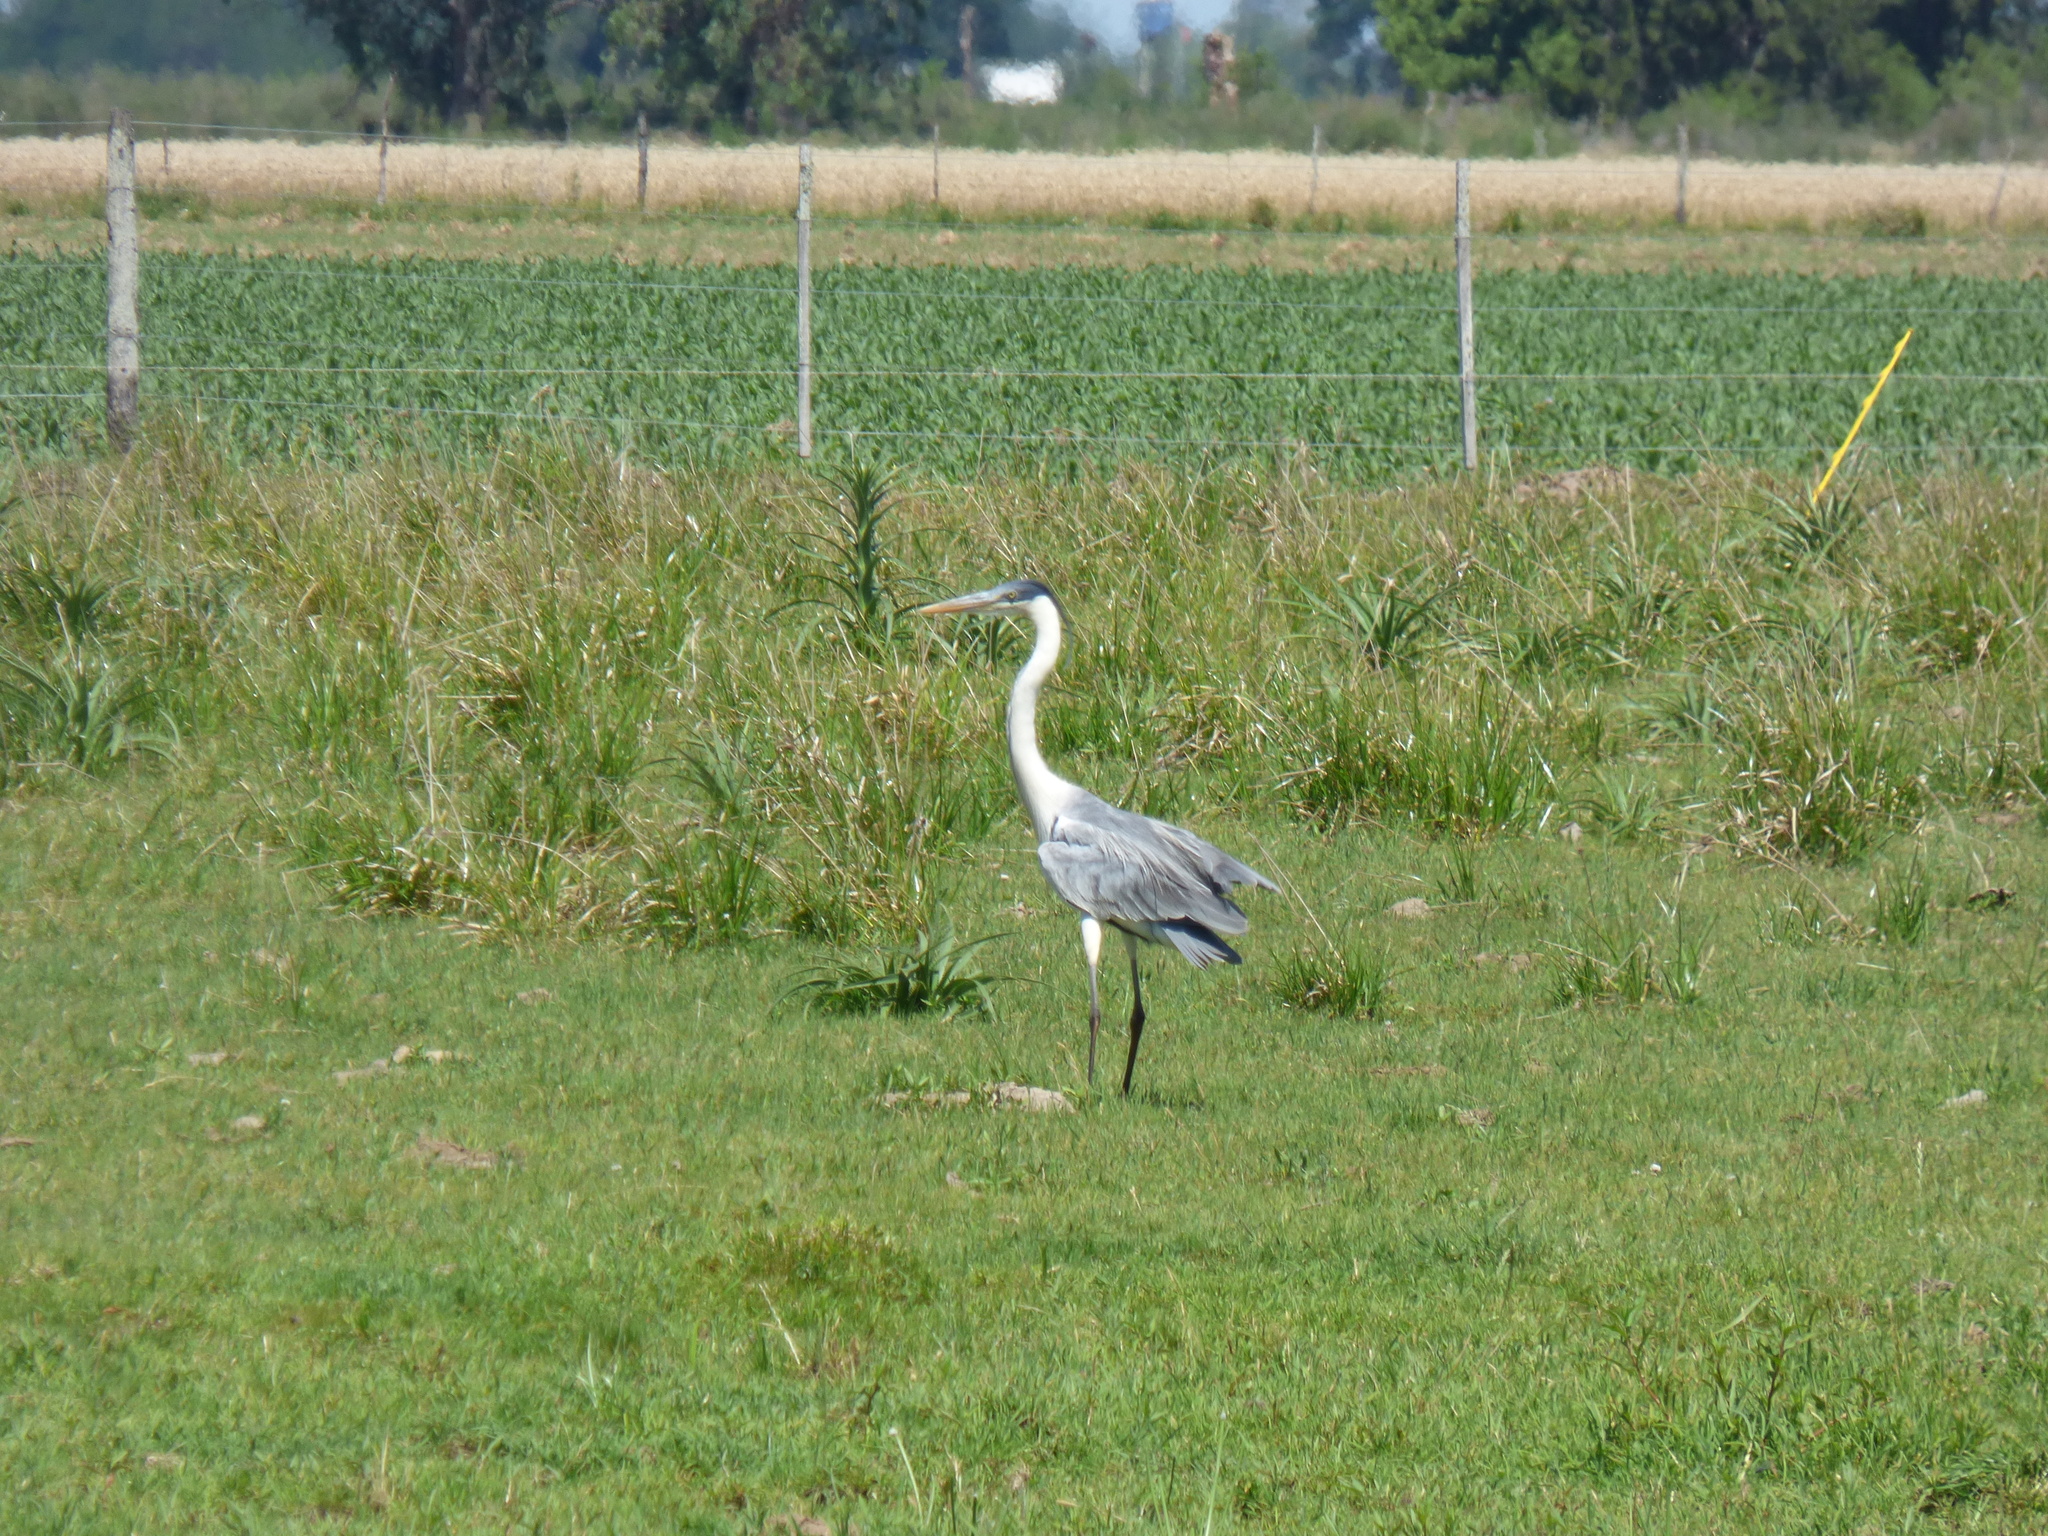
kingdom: Animalia
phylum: Chordata
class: Aves
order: Pelecaniformes
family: Ardeidae
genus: Ardea
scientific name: Ardea cocoi
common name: Cocoi heron
